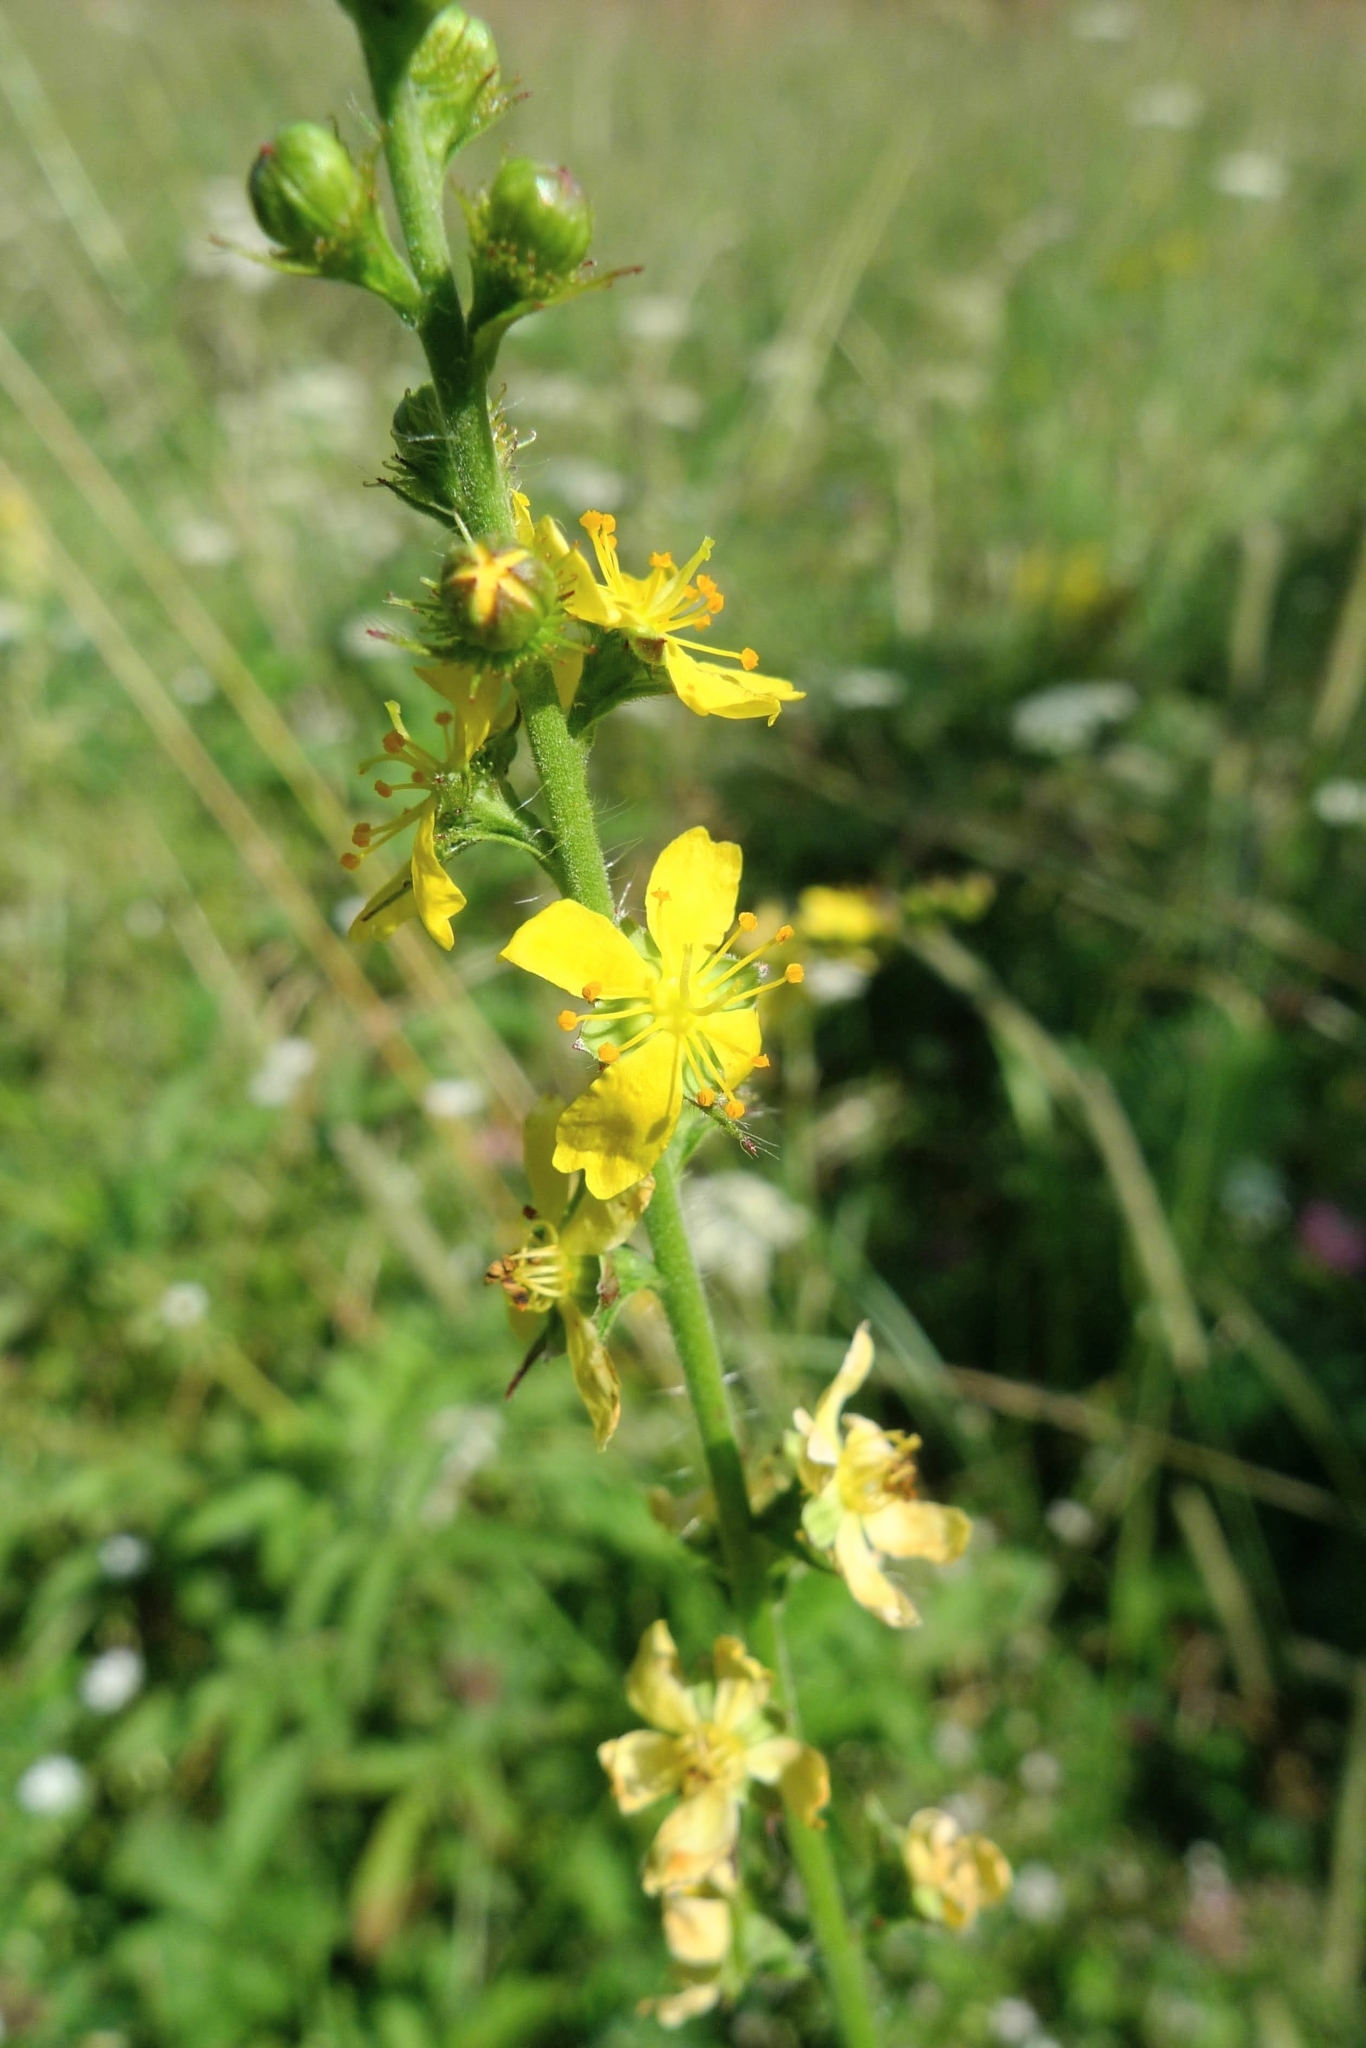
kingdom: Plantae
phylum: Tracheophyta
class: Magnoliopsida
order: Rosales
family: Rosaceae
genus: Agrimonia
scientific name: Agrimonia eupatoria
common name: Agrimony
